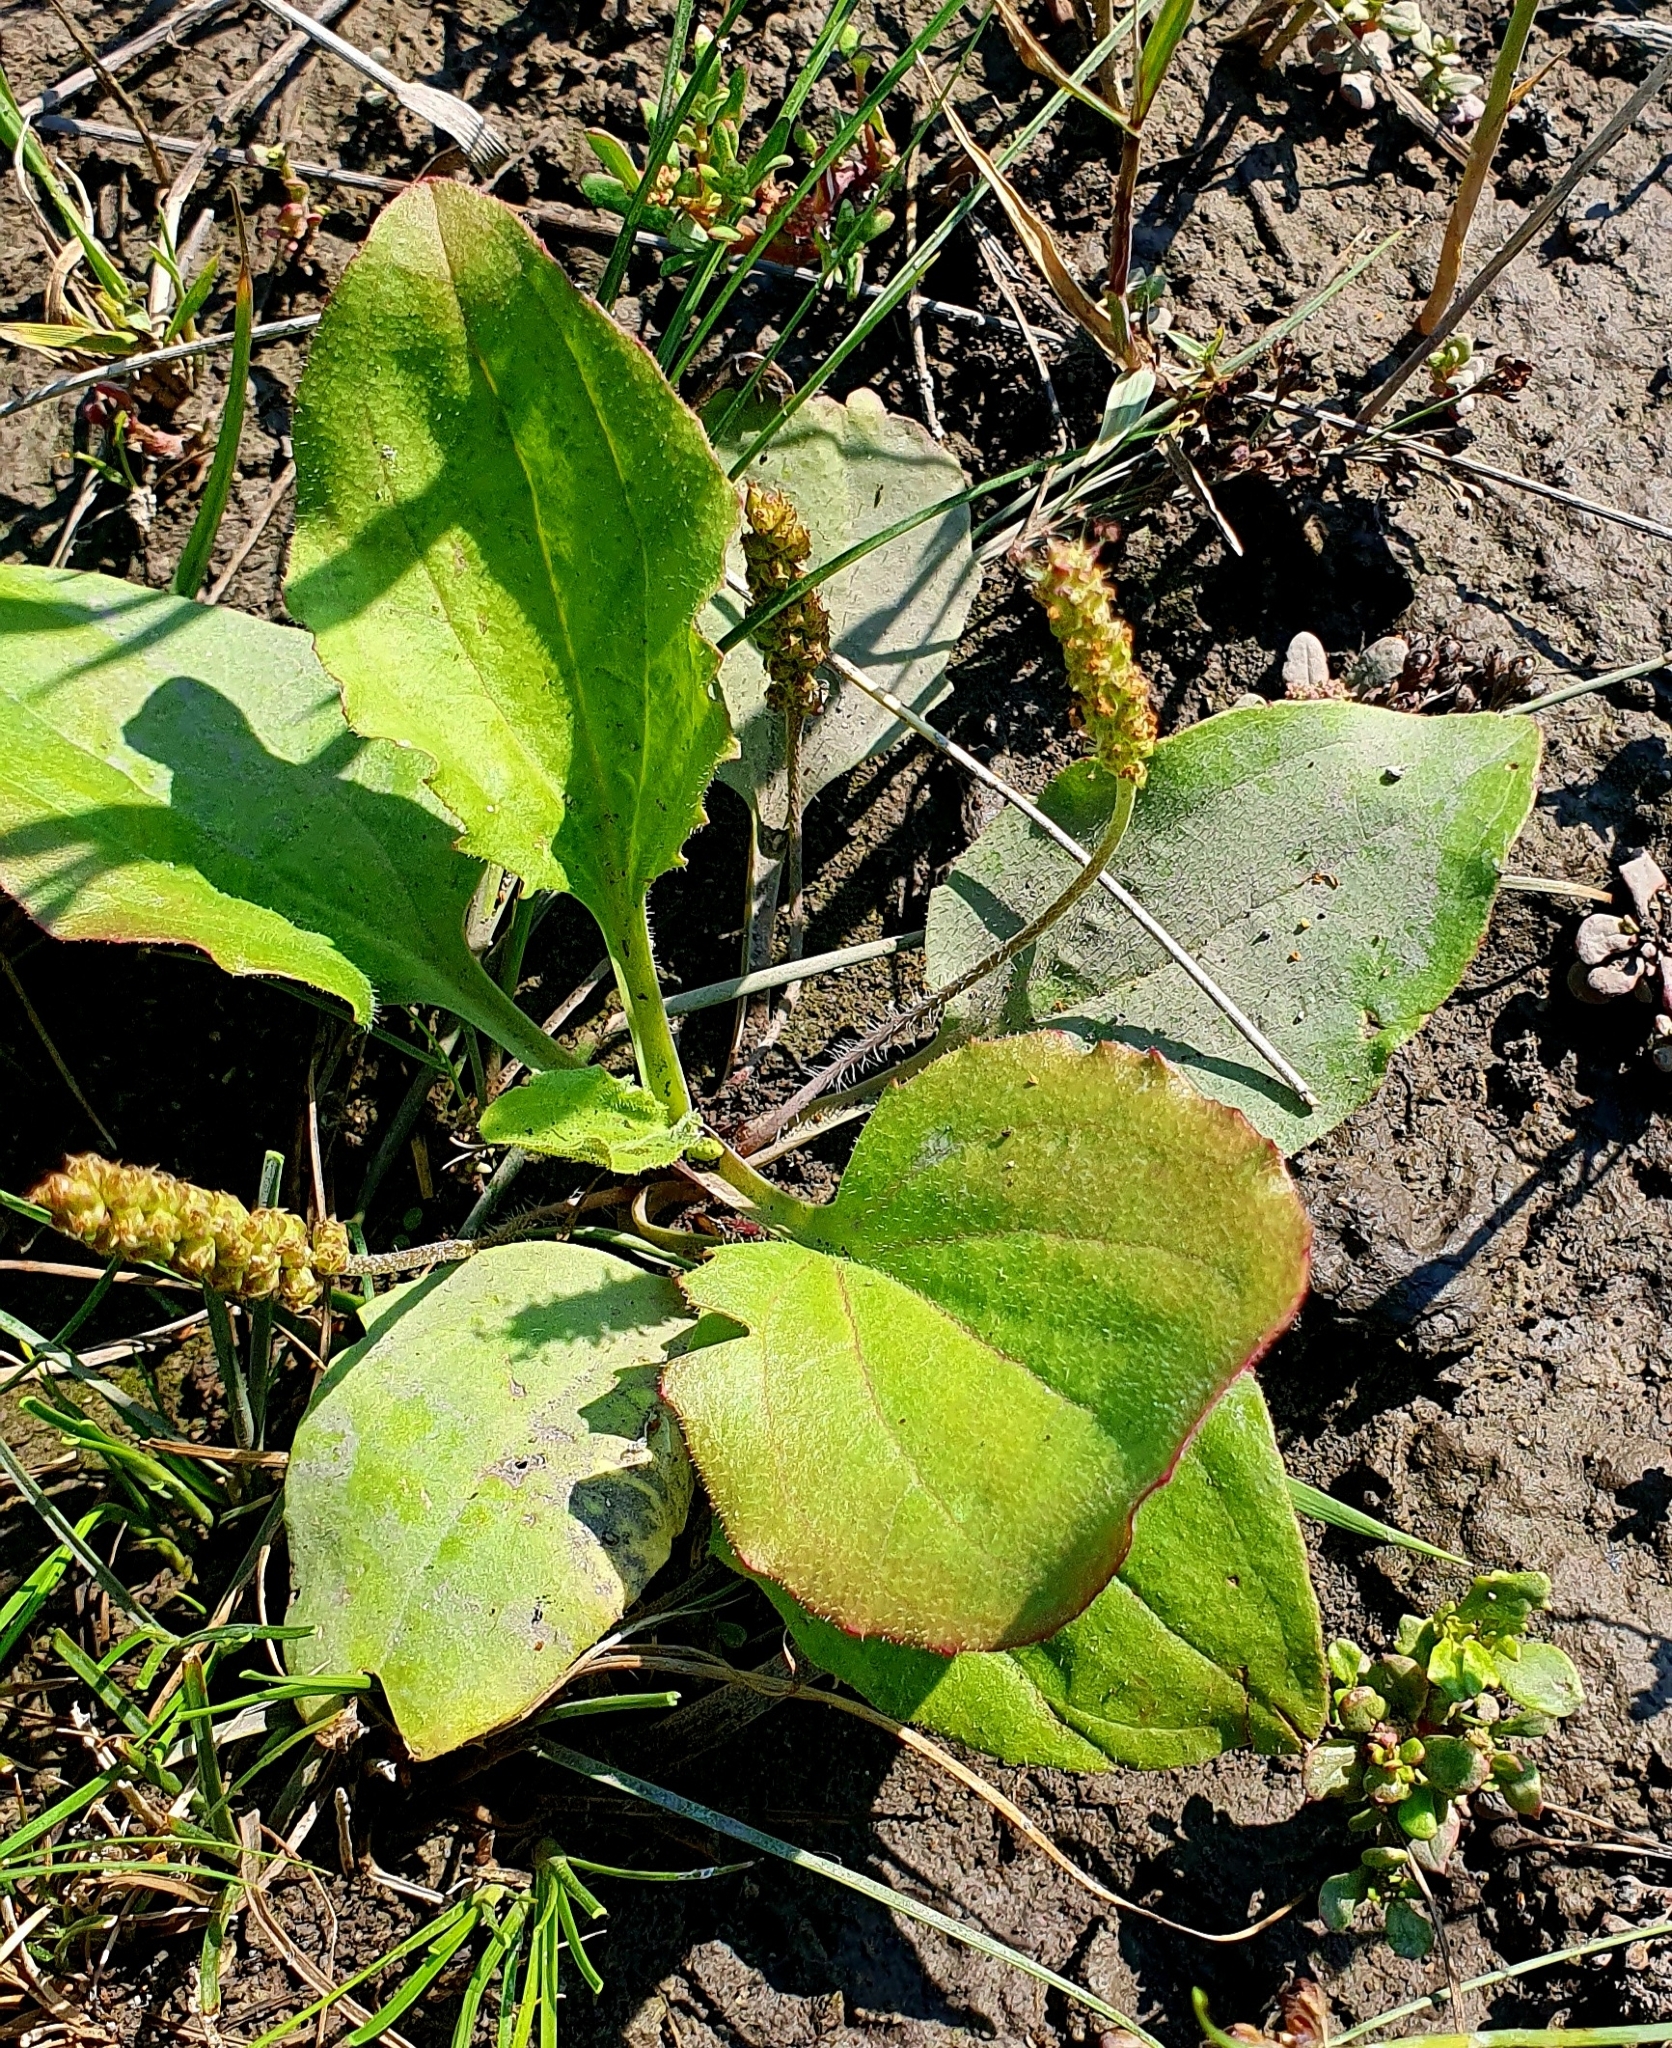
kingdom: Plantae
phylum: Tracheophyta
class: Magnoliopsida
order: Lamiales
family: Plantaginaceae
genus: Plantago
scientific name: Plantago major
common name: Common plantain
